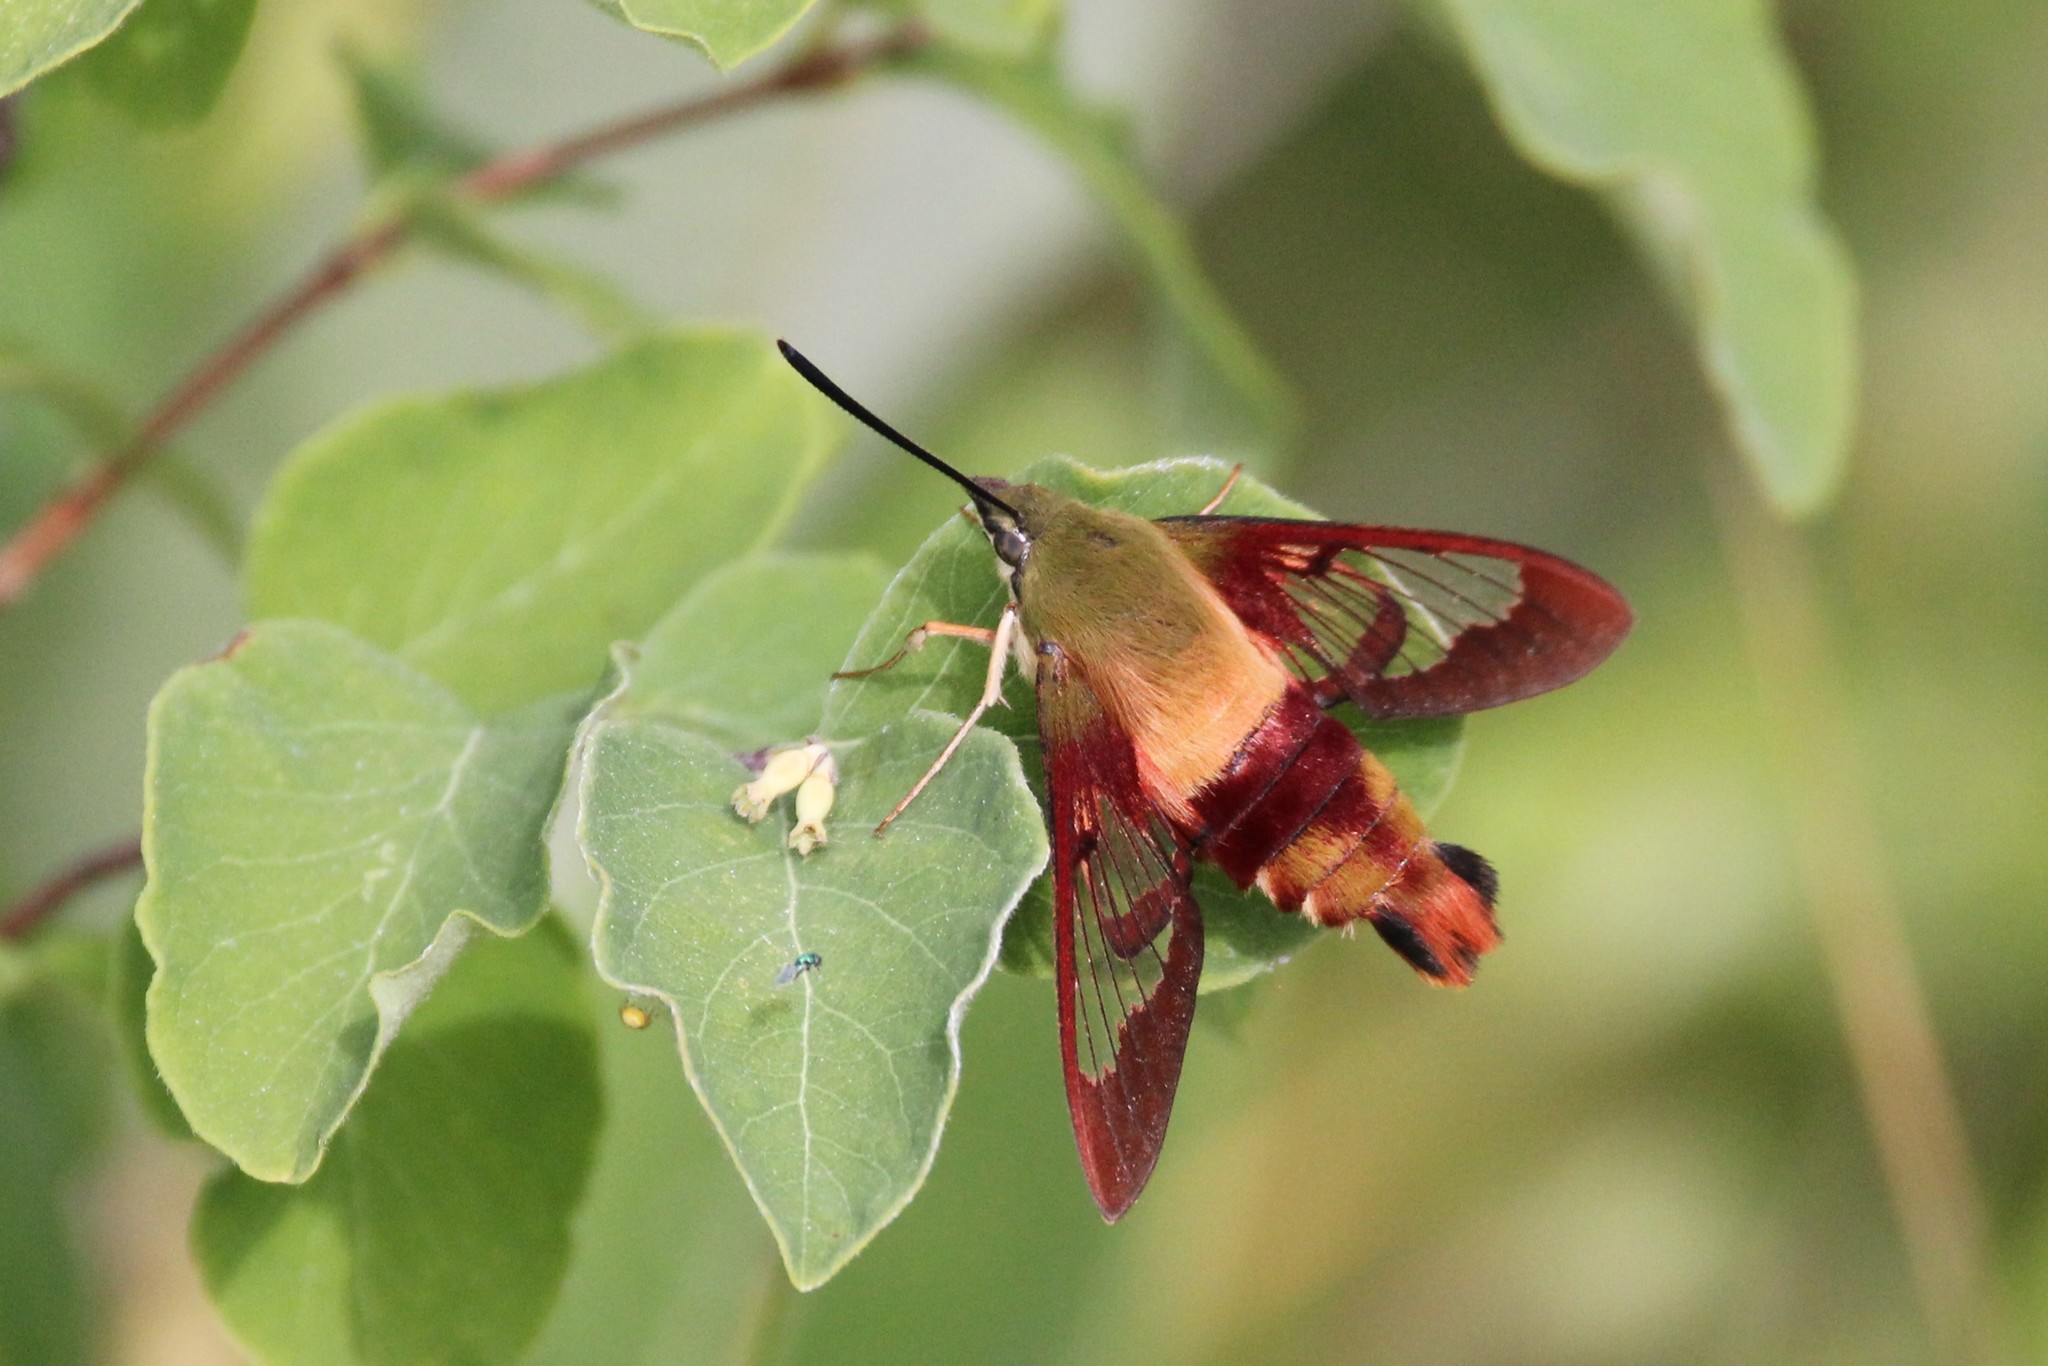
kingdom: Animalia
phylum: Arthropoda
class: Insecta
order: Lepidoptera
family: Sphingidae
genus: Hemaris
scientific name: Hemaris thysbe
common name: Common clear-wing
